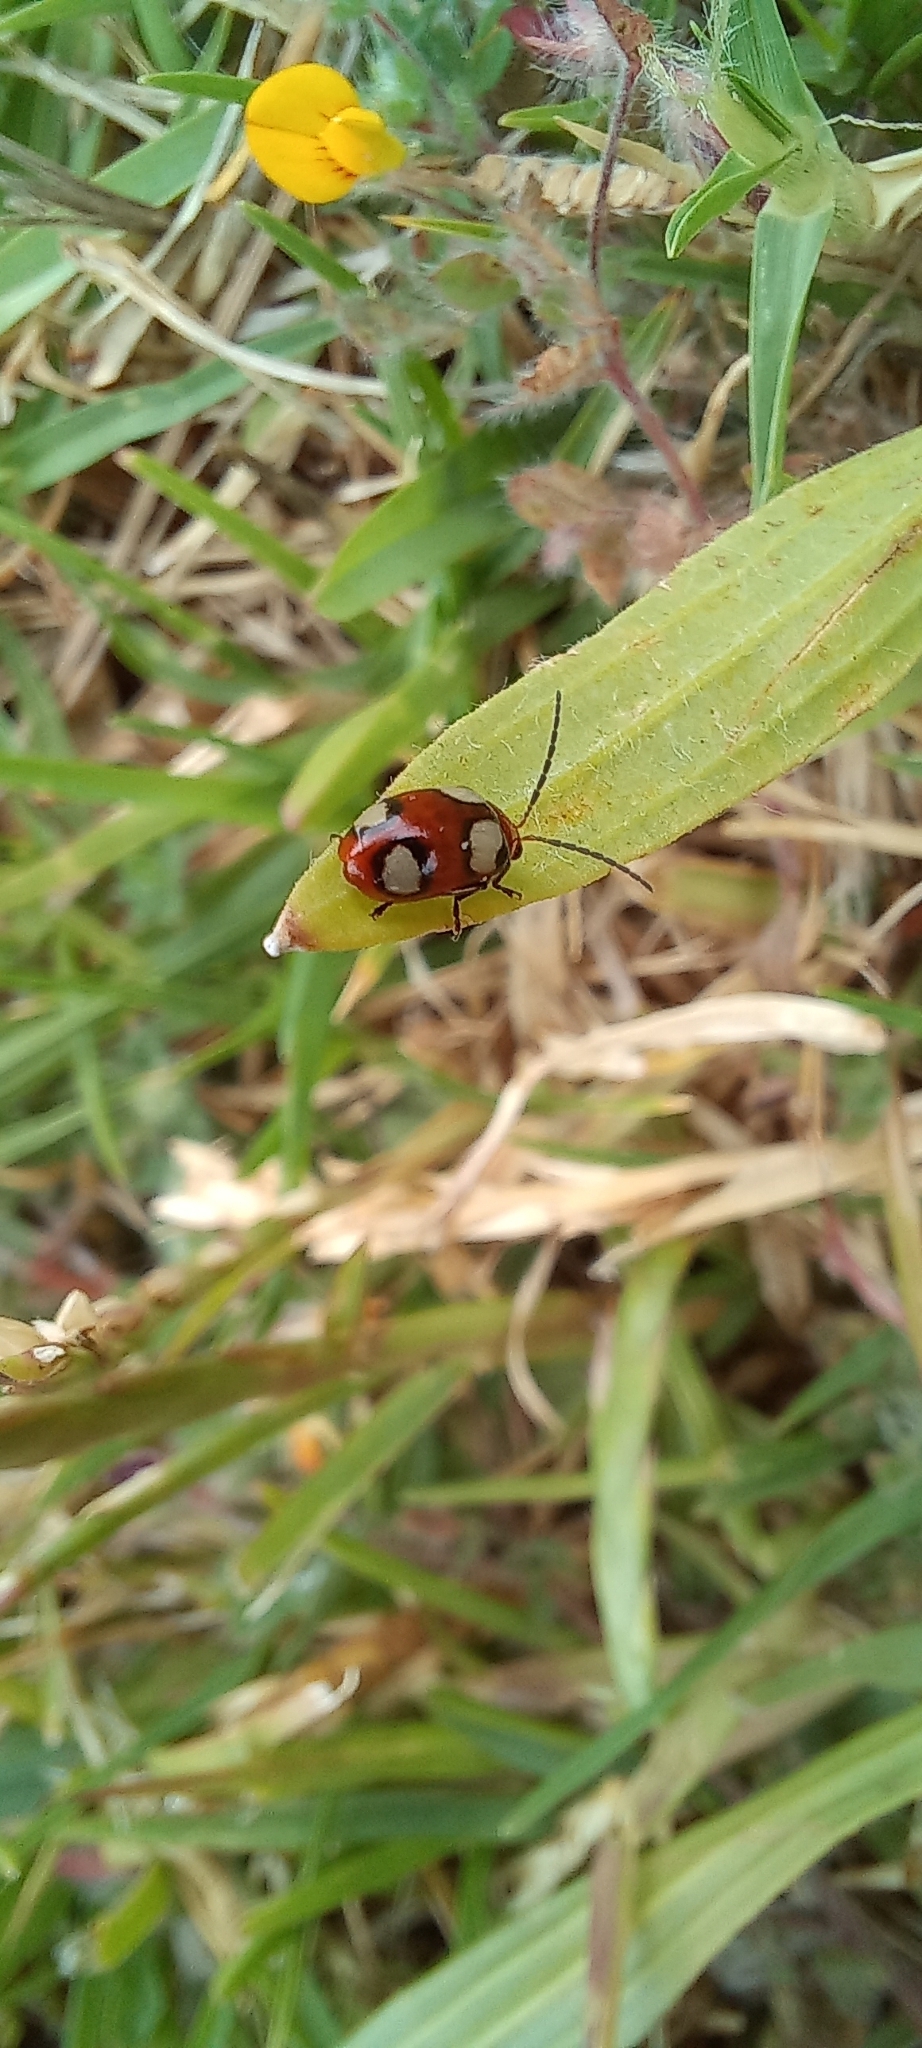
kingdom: Animalia
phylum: Arthropoda
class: Insecta
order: Coleoptera
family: Chrysomelidae
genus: Monolepta
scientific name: Monolepta
